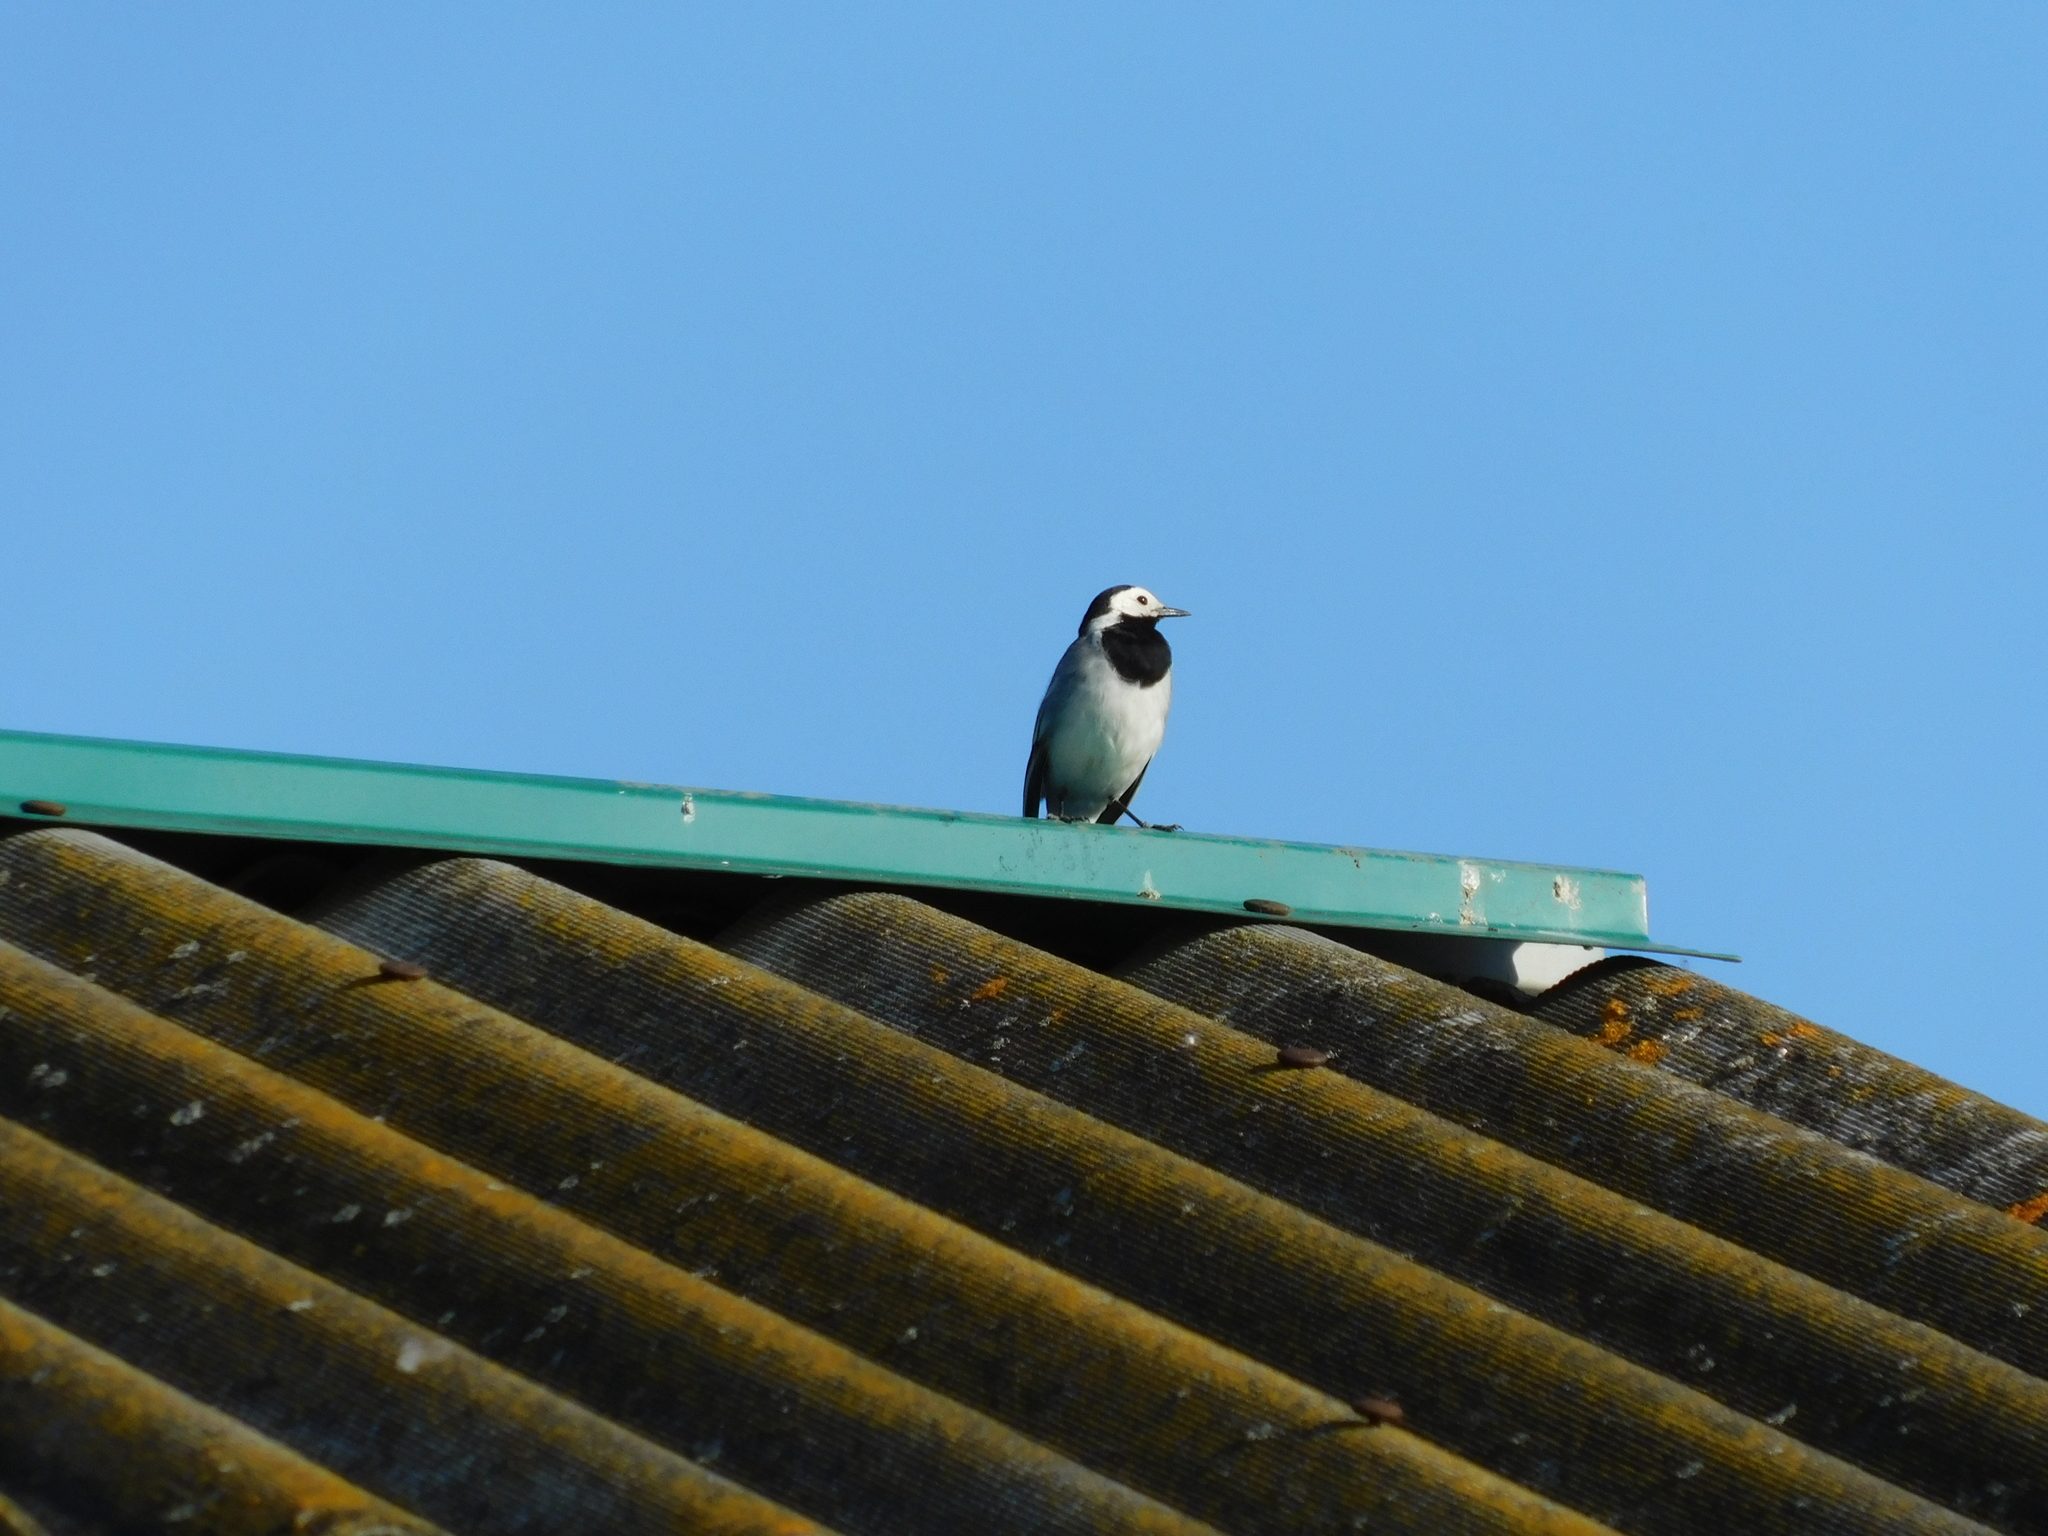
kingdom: Animalia
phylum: Chordata
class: Aves
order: Passeriformes
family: Motacillidae
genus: Motacilla
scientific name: Motacilla alba
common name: White wagtail
